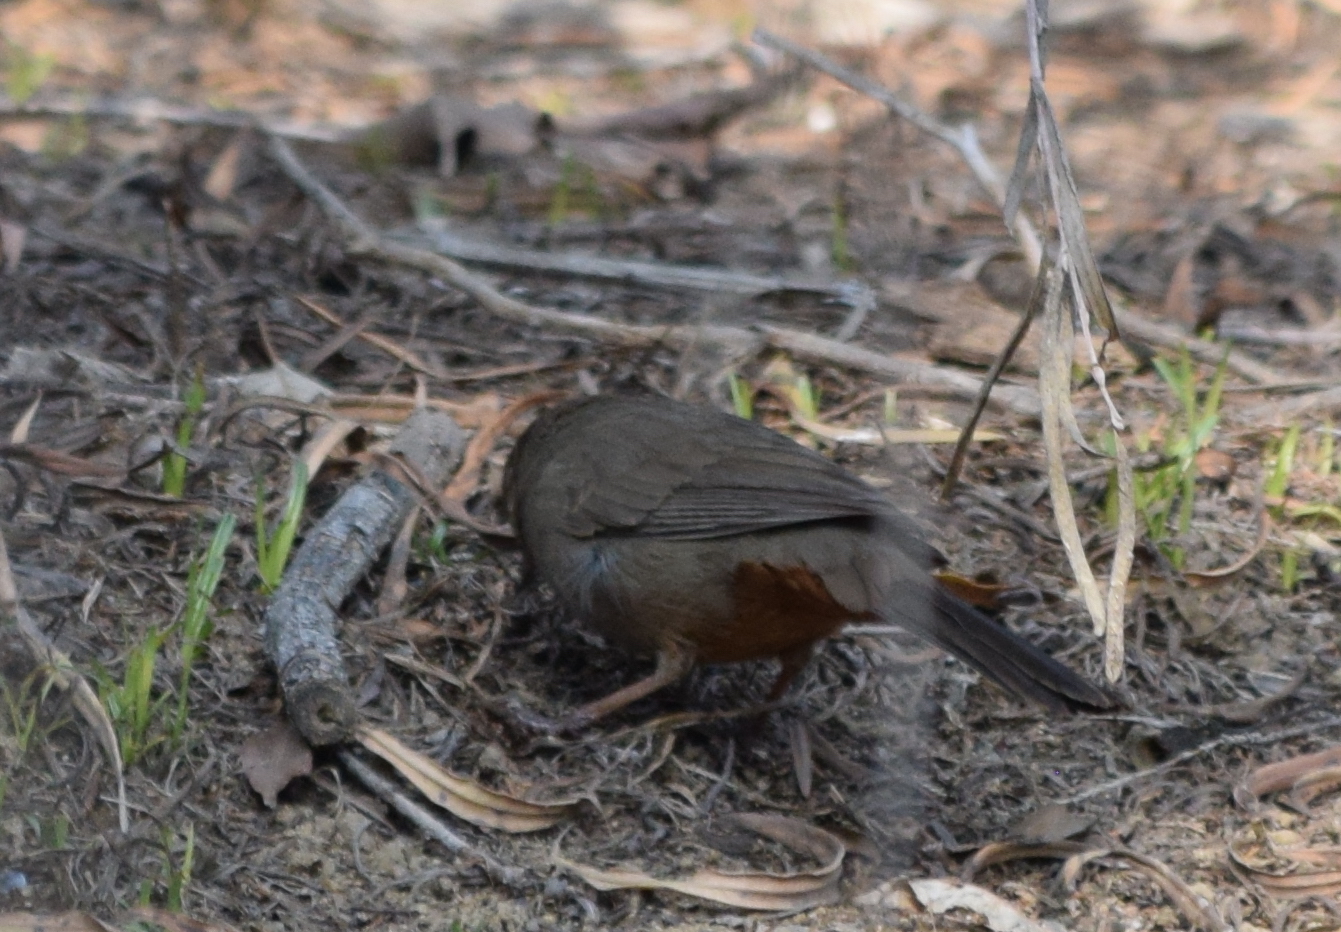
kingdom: Animalia
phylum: Chordata
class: Aves
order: Passeriformes
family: Passerellidae
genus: Melozone
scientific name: Melozone crissalis
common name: California towhee
